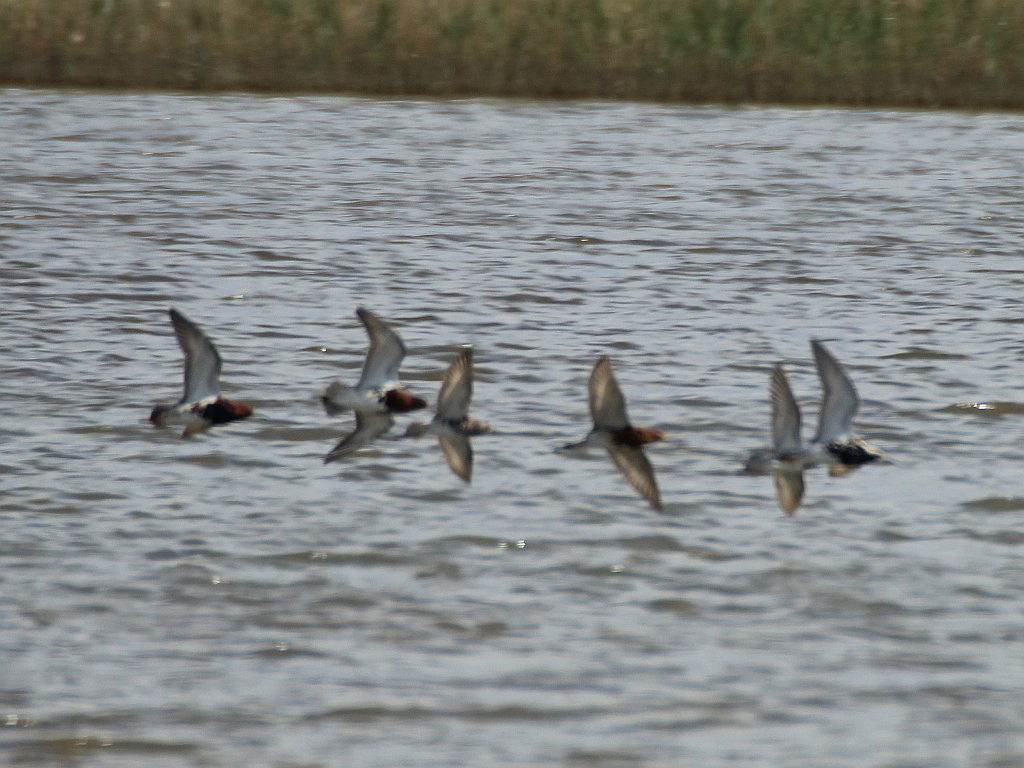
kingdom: Animalia
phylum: Chordata
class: Aves
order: Charadriiformes
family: Scolopacidae
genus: Calidris
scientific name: Calidris pugnax
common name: Ruff
